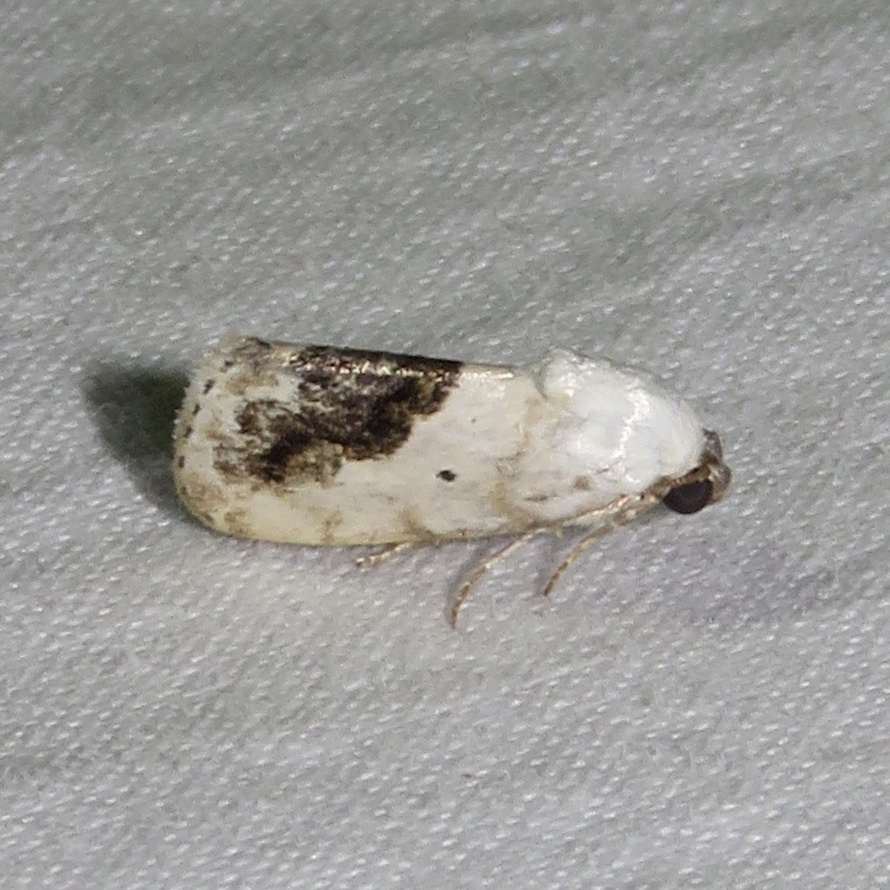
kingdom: Animalia
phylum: Arthropoda
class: Insecta
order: Lepidoptera
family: Noctuidae
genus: Acontia
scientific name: Acontia erastrioides
